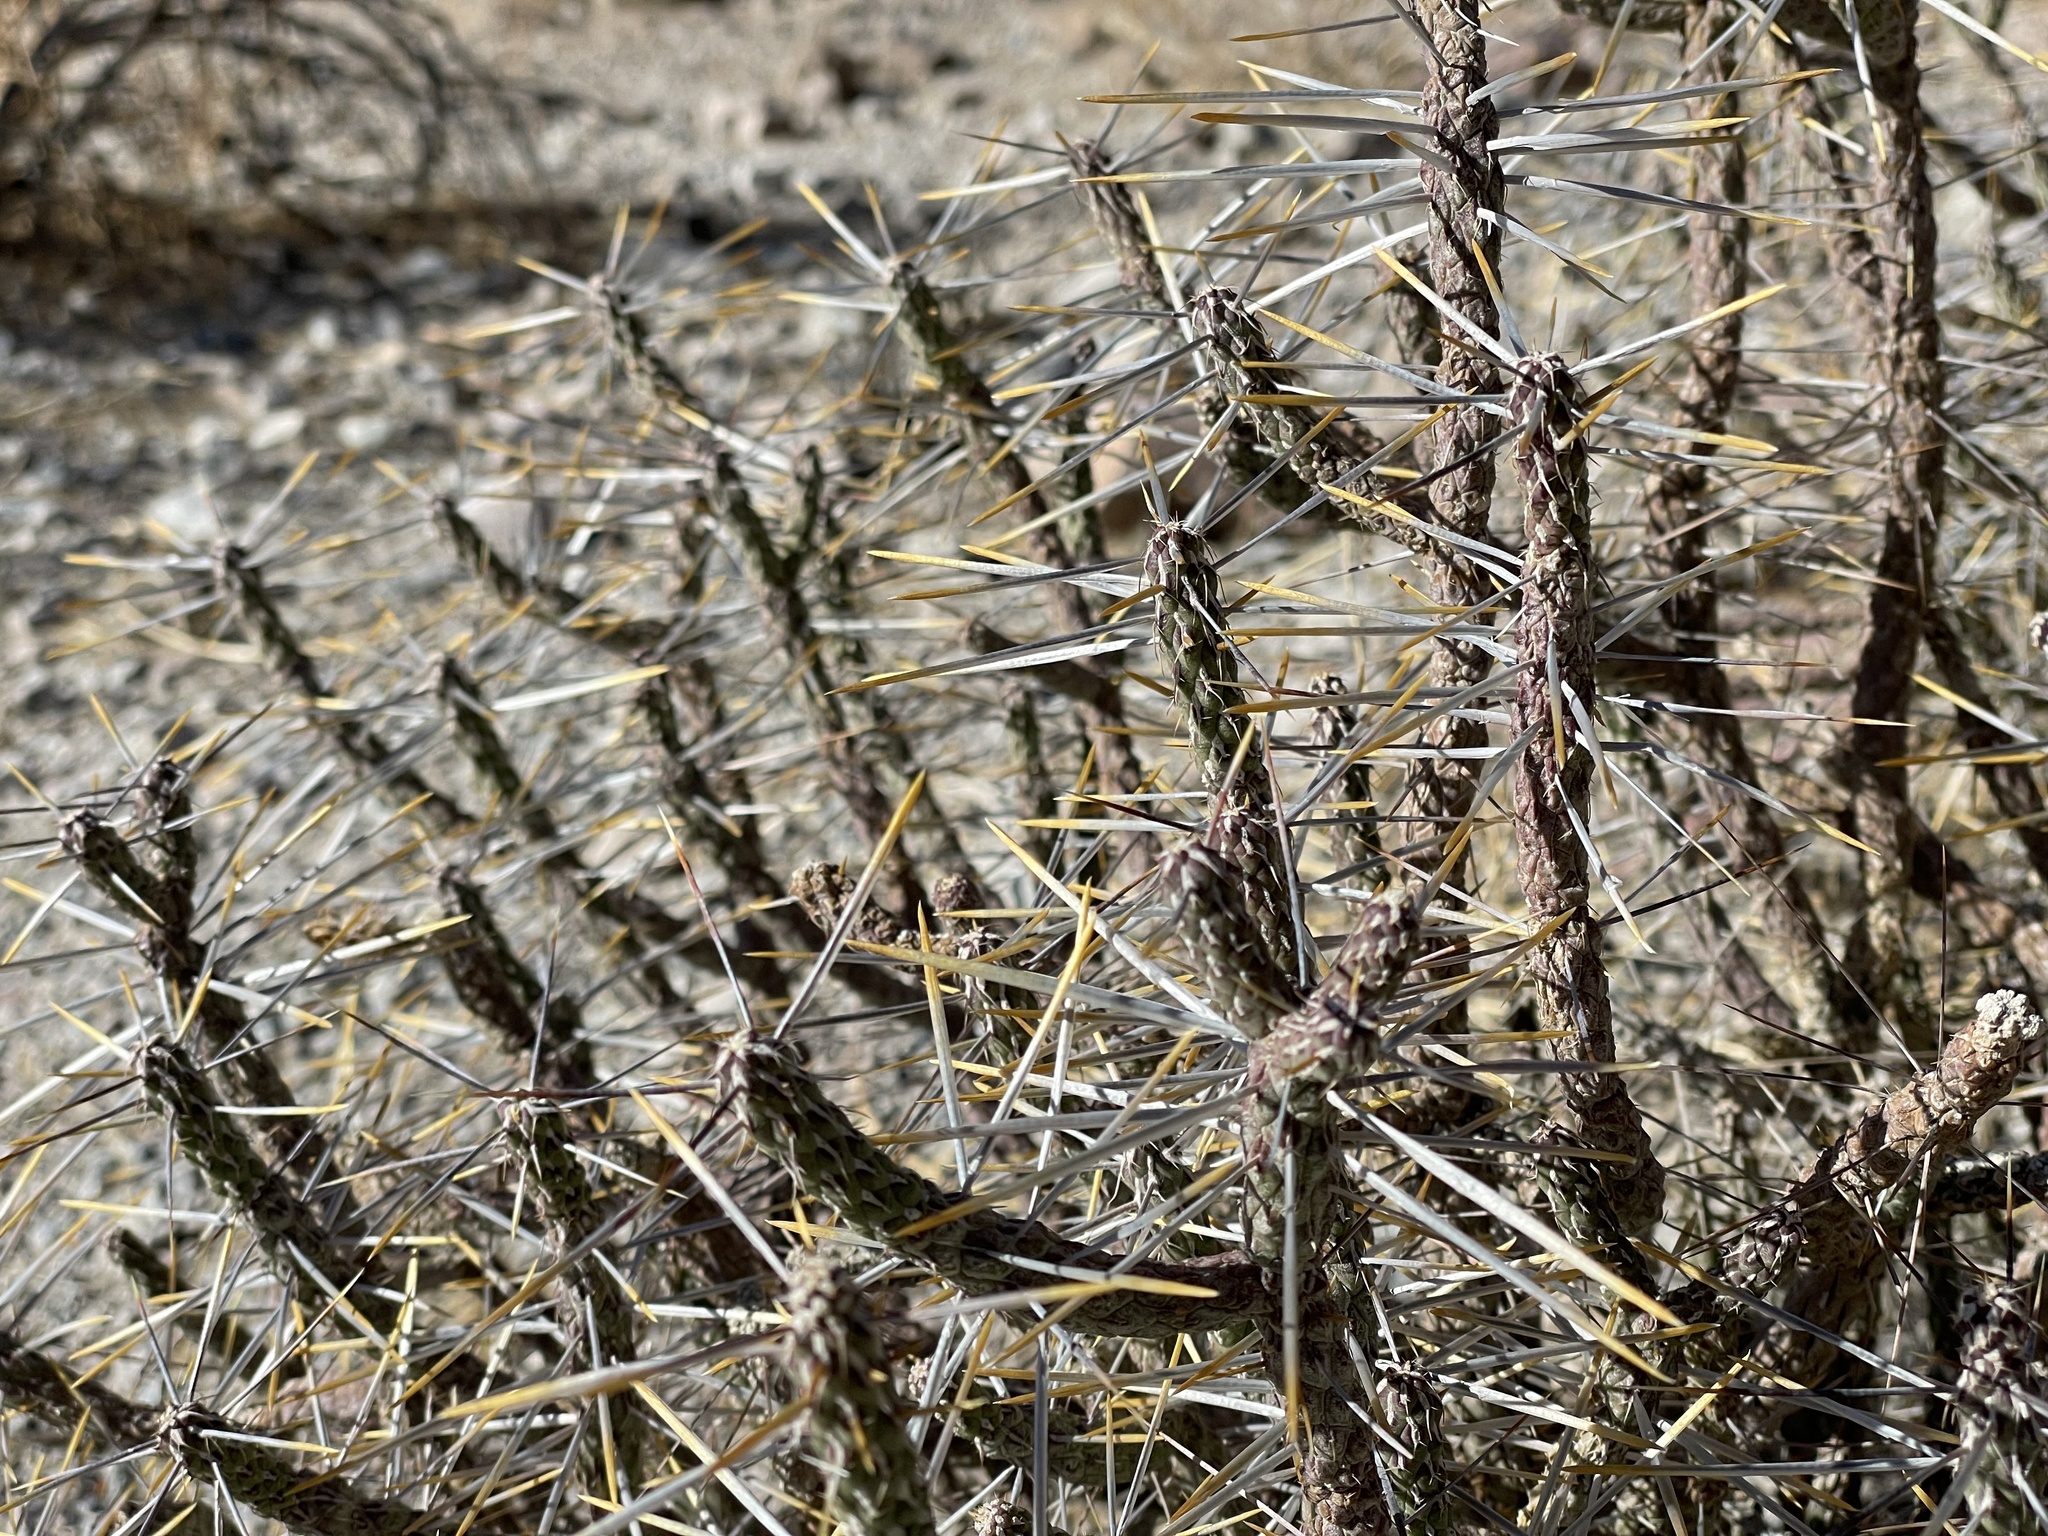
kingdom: Plantae
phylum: Tracheophyta
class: Magnoliopsida
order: Caryophyllales
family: Cactaceae
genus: Cylindropuntia
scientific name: Cylindropuntia ramosissima
